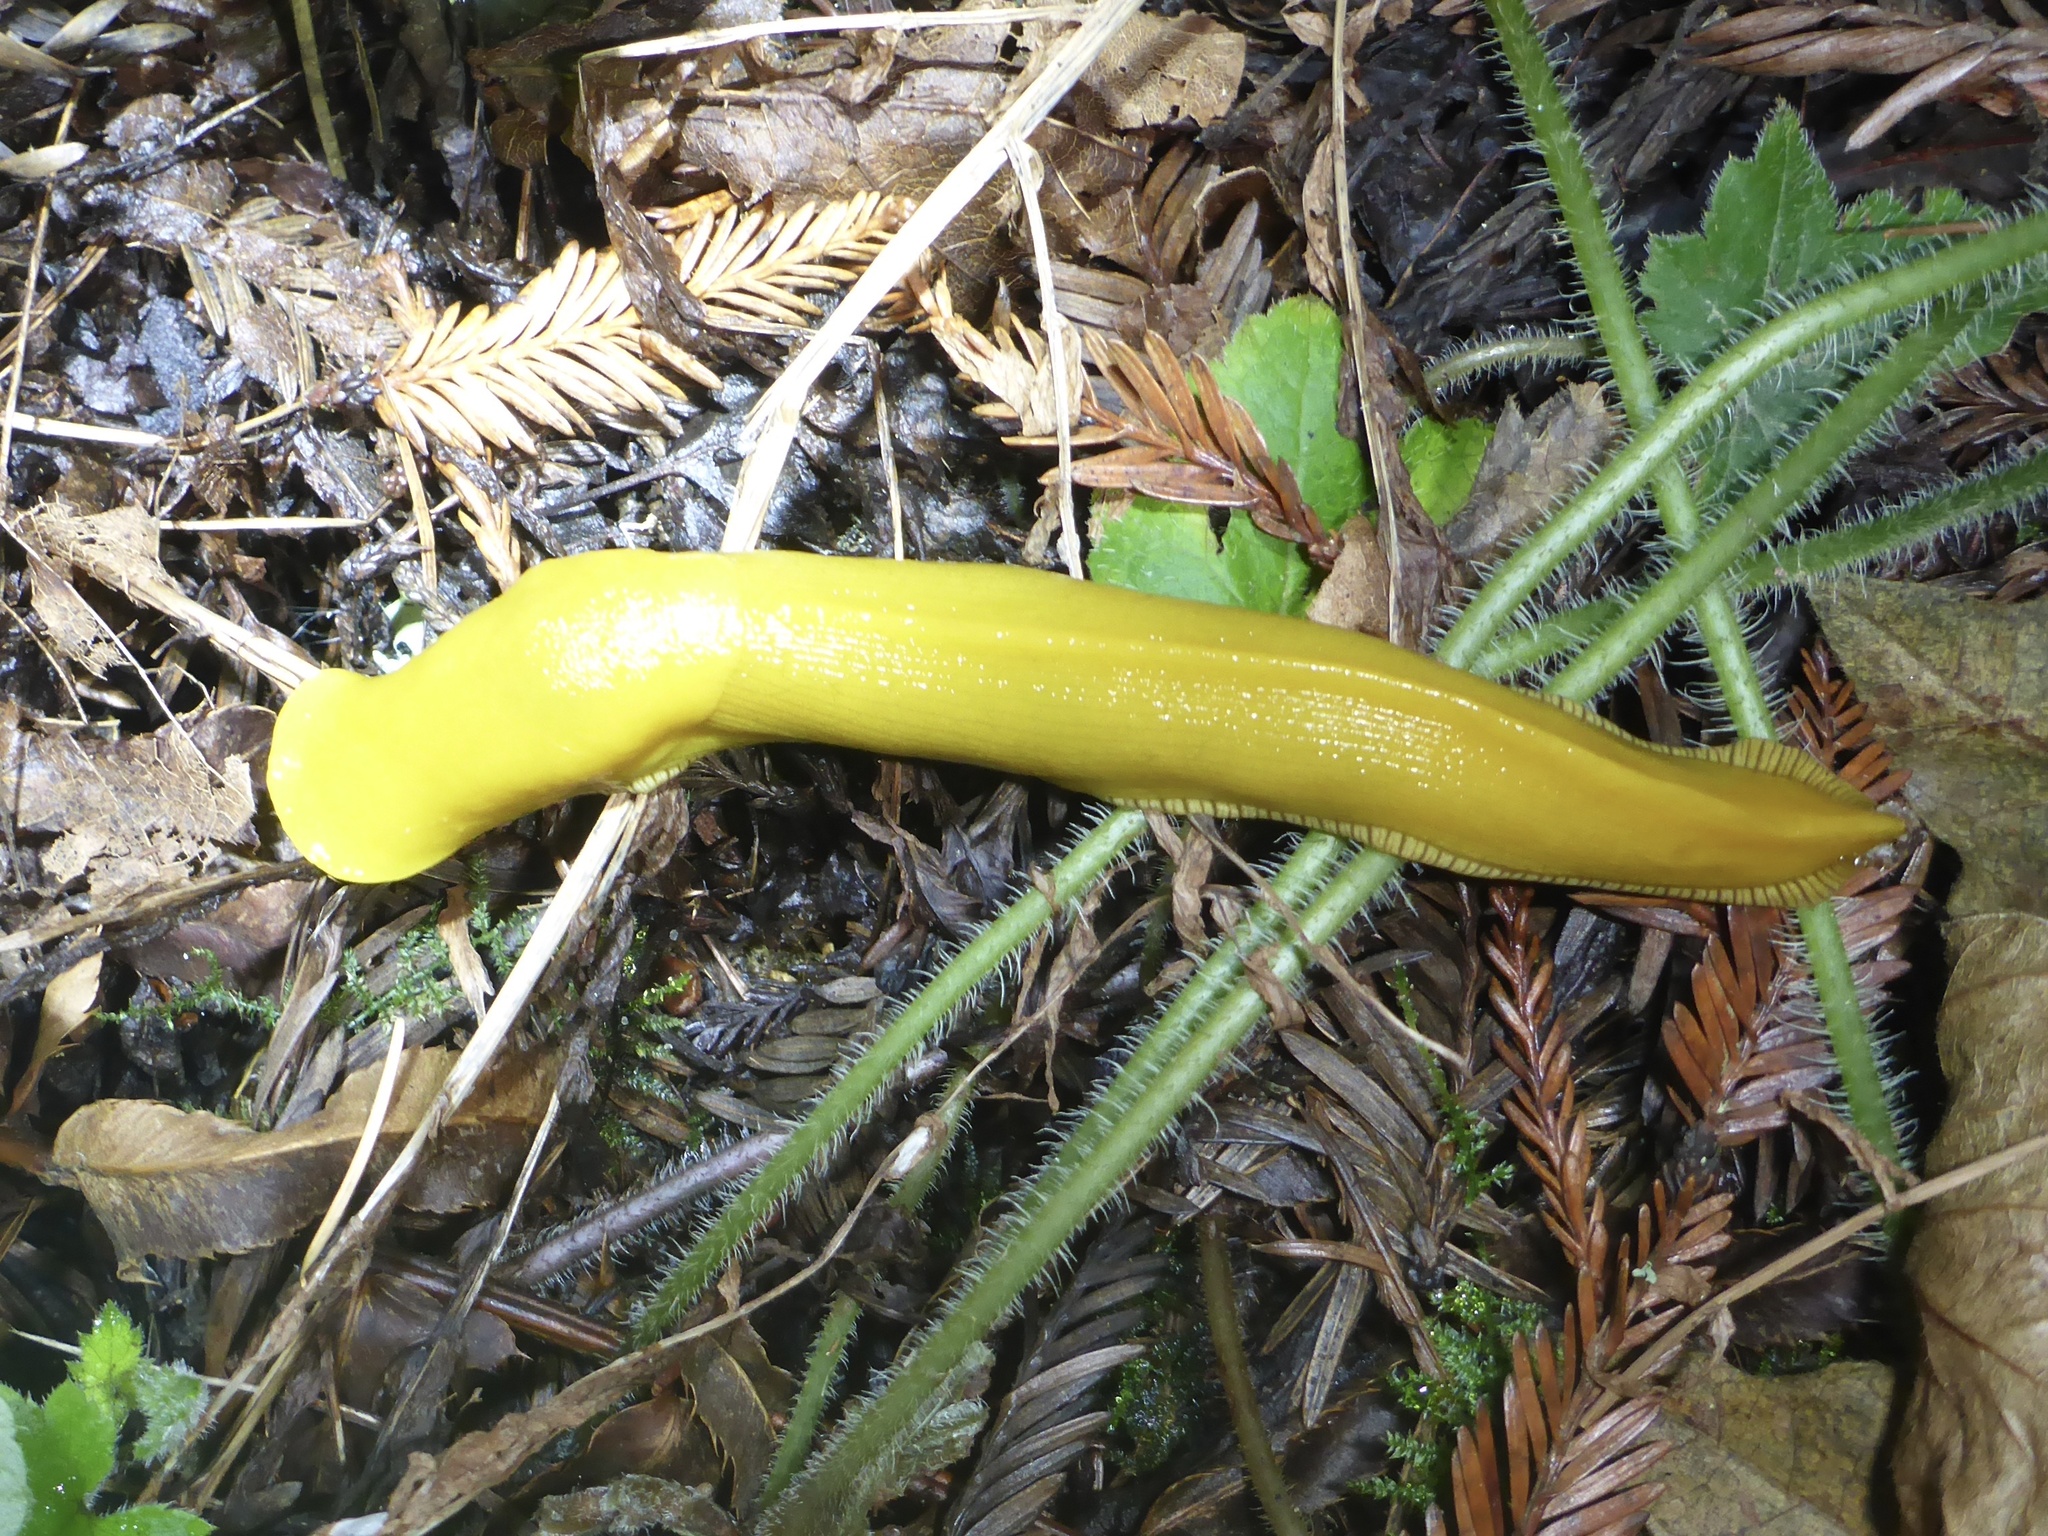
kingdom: Animalia
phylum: Mollusca
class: Gastropoda
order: Stylommatophora
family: Ariolimacidae
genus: Ariolimax
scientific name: Ariolimax californicus
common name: California banana slug
